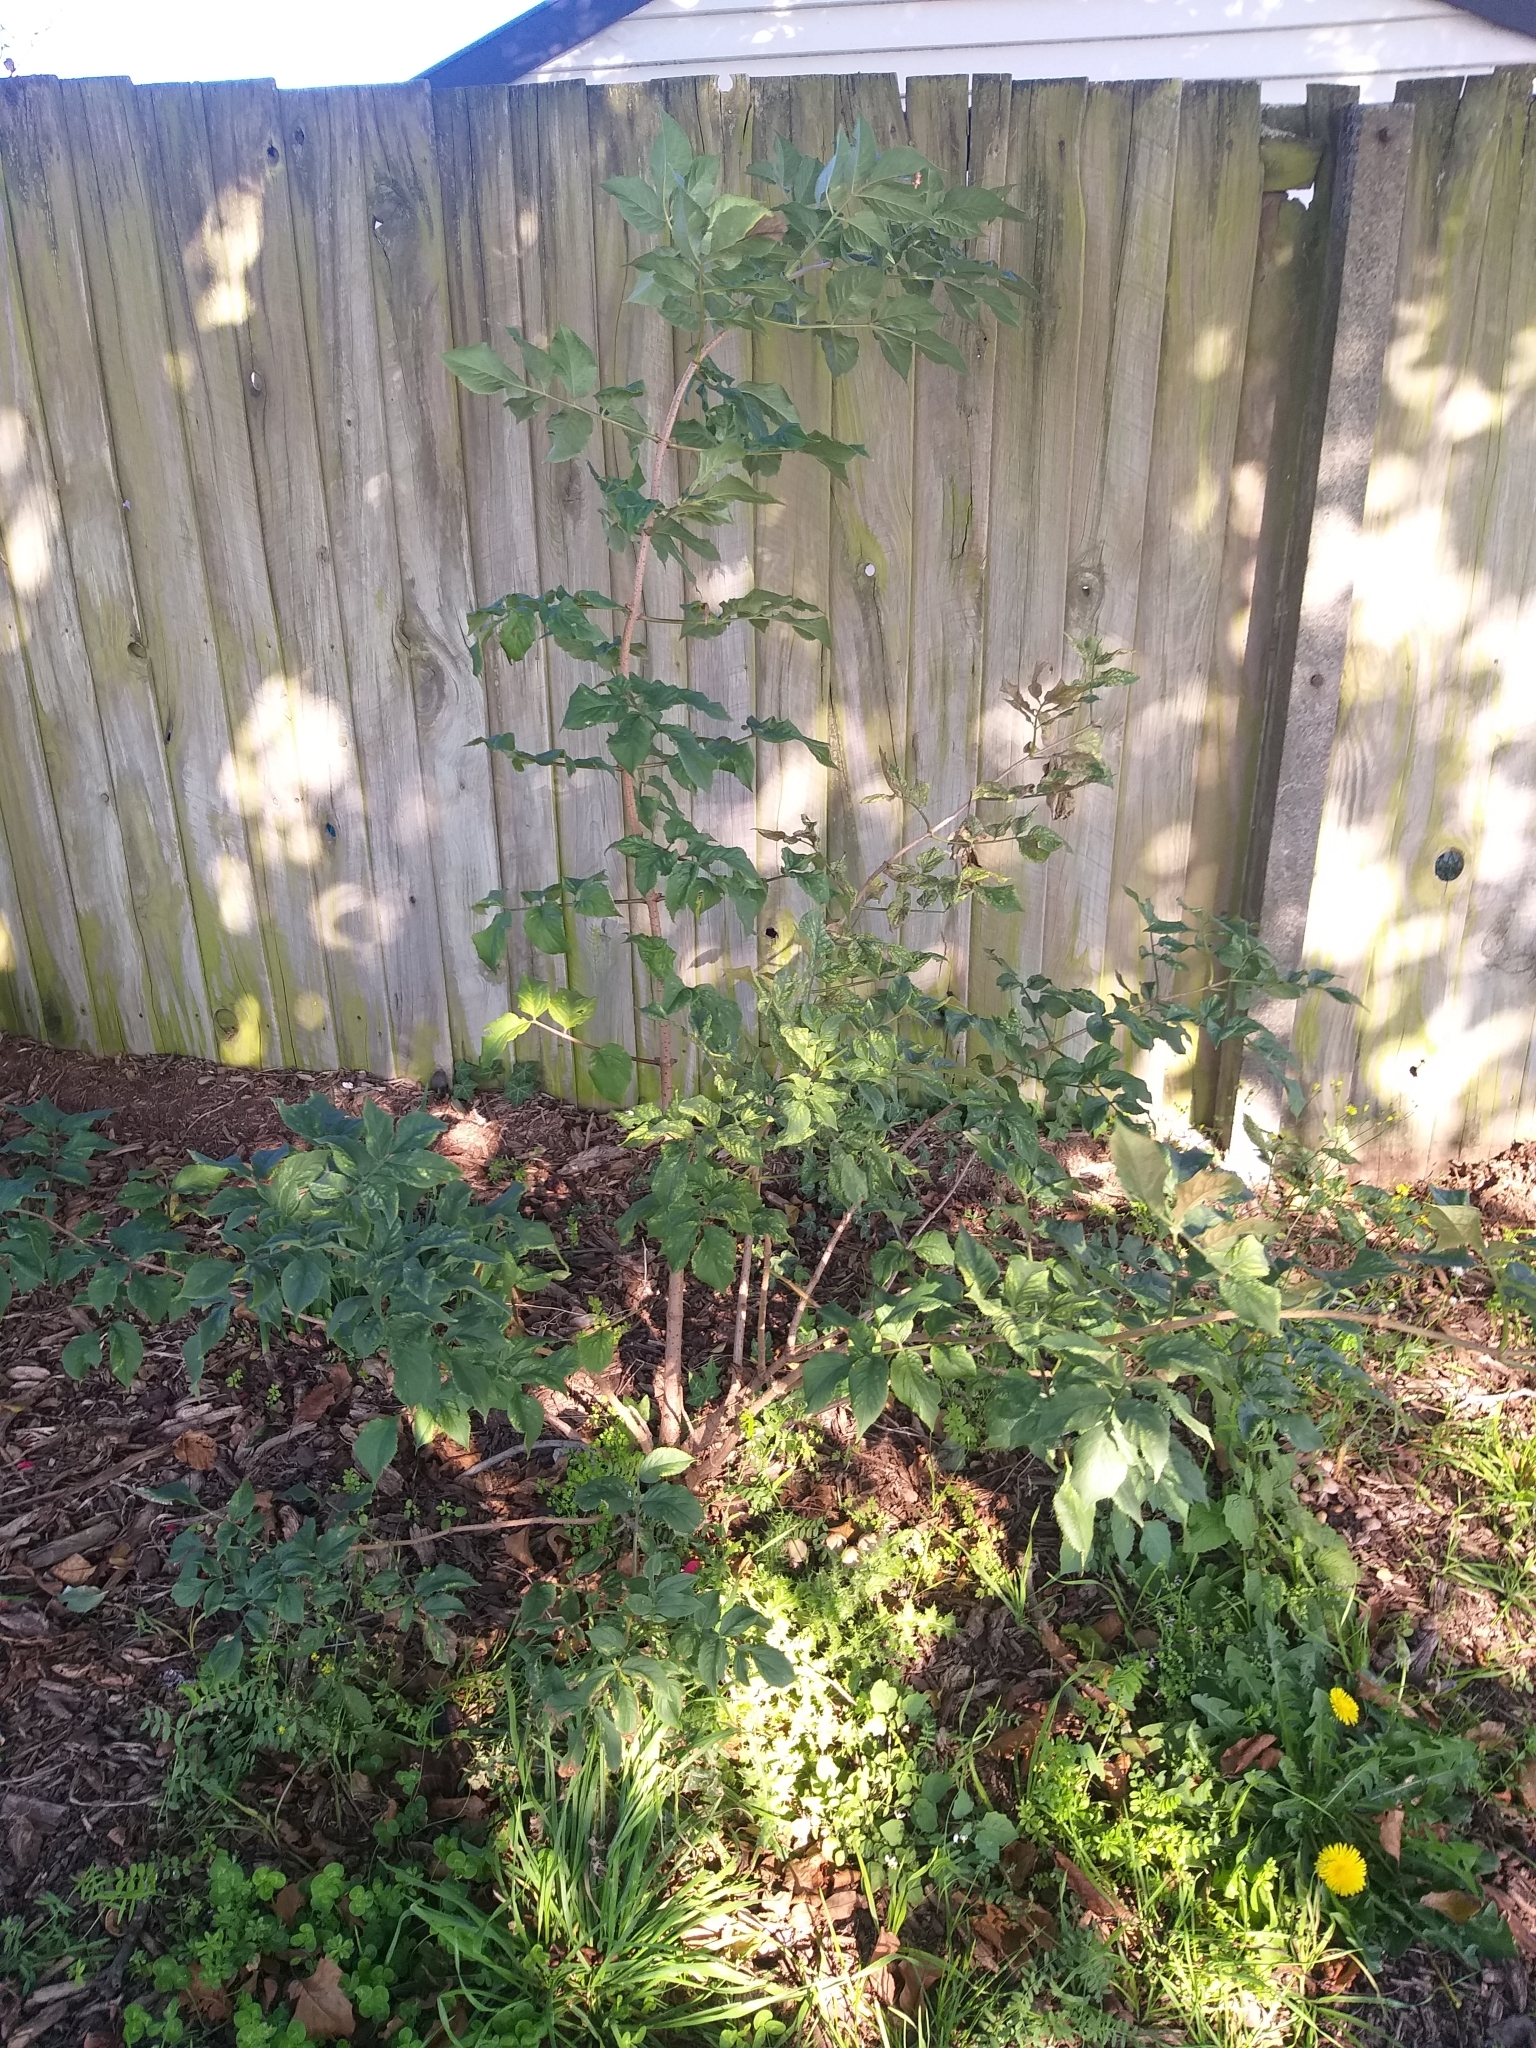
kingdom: Plantae
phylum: Tracheophyta
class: Magnoliopsida
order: Dipsacales
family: Viburnaceae
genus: Sambucus
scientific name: Sambucus nigra
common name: Elder
